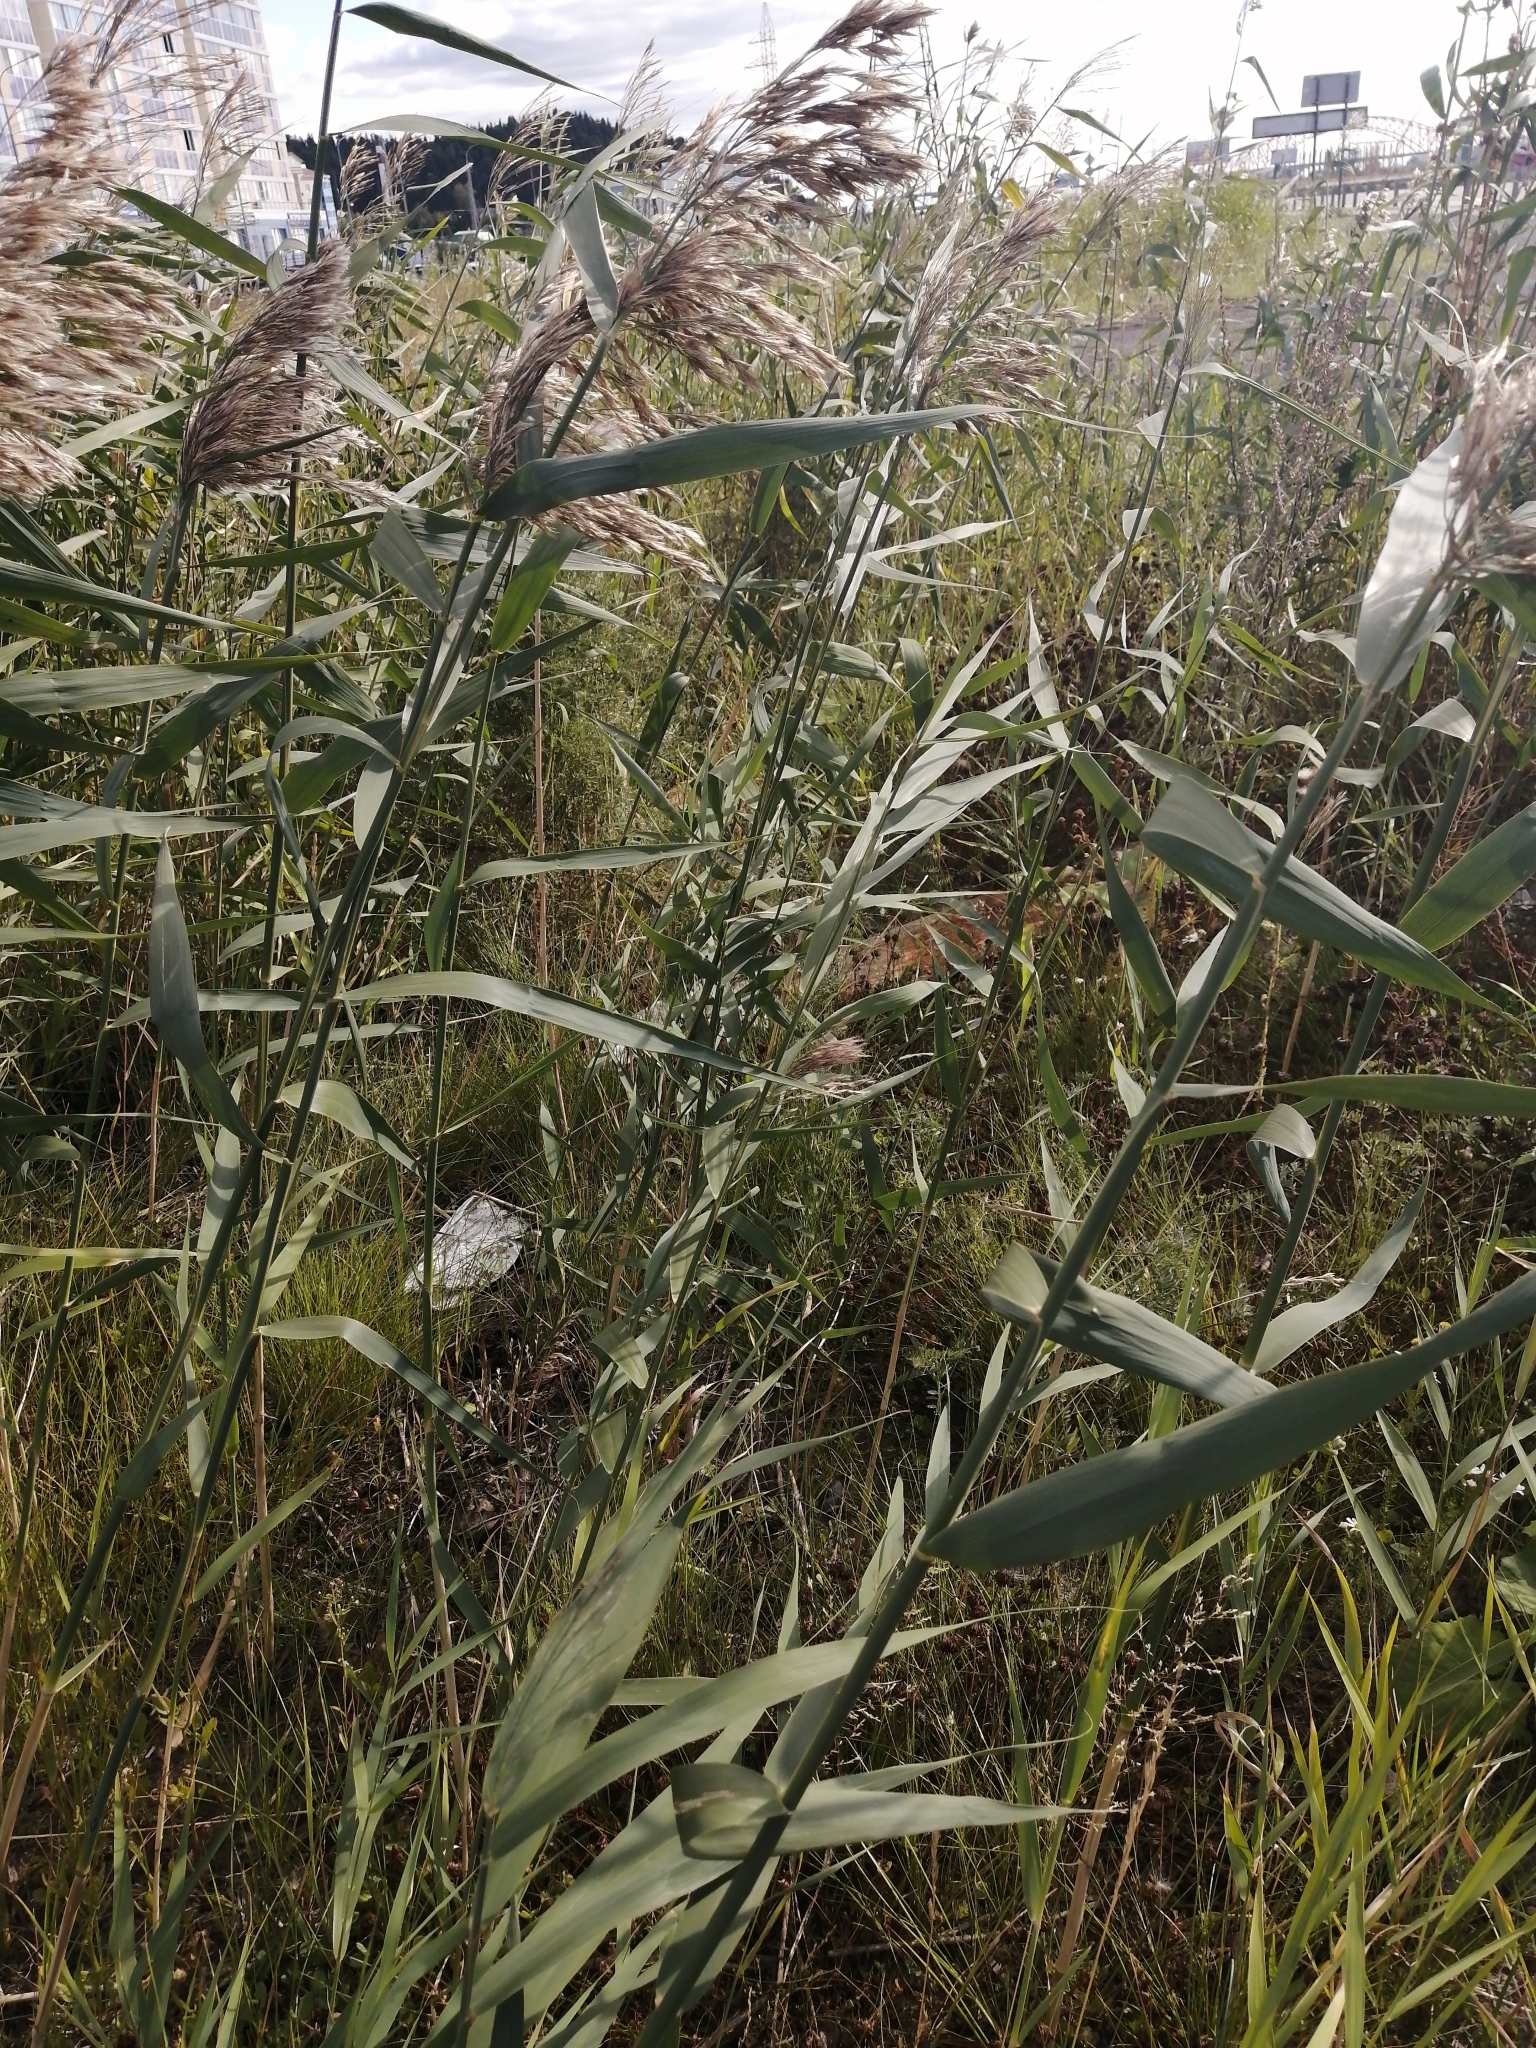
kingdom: Plantae
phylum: Tracheophyta
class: Liliopsida
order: Poales
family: Poaceae
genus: Phragmites
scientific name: Phragmites australis
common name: Common reed
